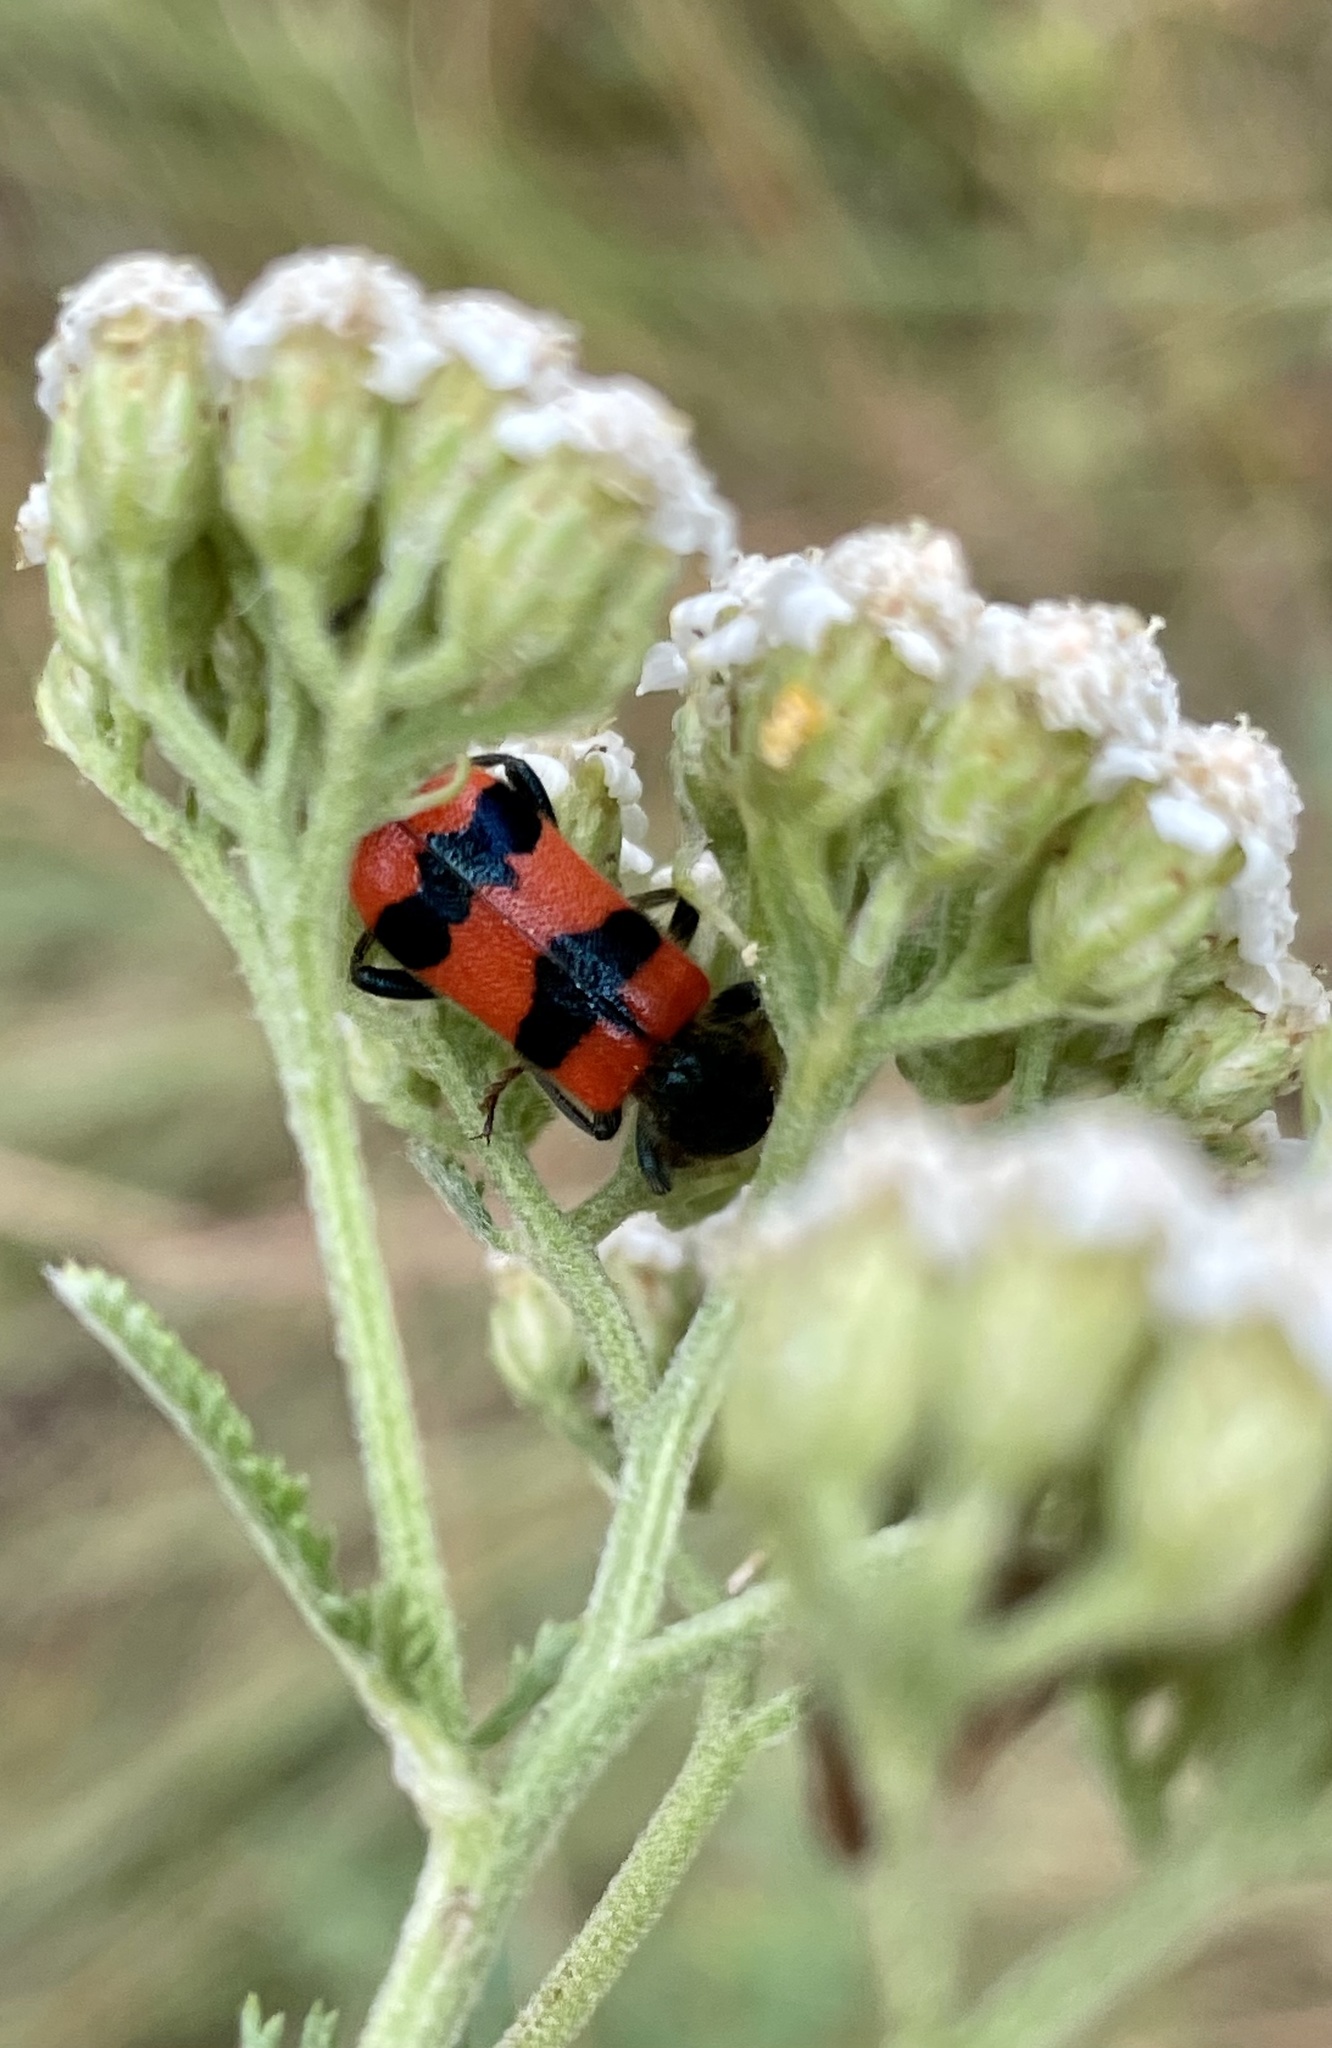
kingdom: Animalia
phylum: Arthropoda
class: Insecta
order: Coleoptera
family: Cleridae
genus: Trichodes
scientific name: Trichodes apiarius
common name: Bee-eating beetle
